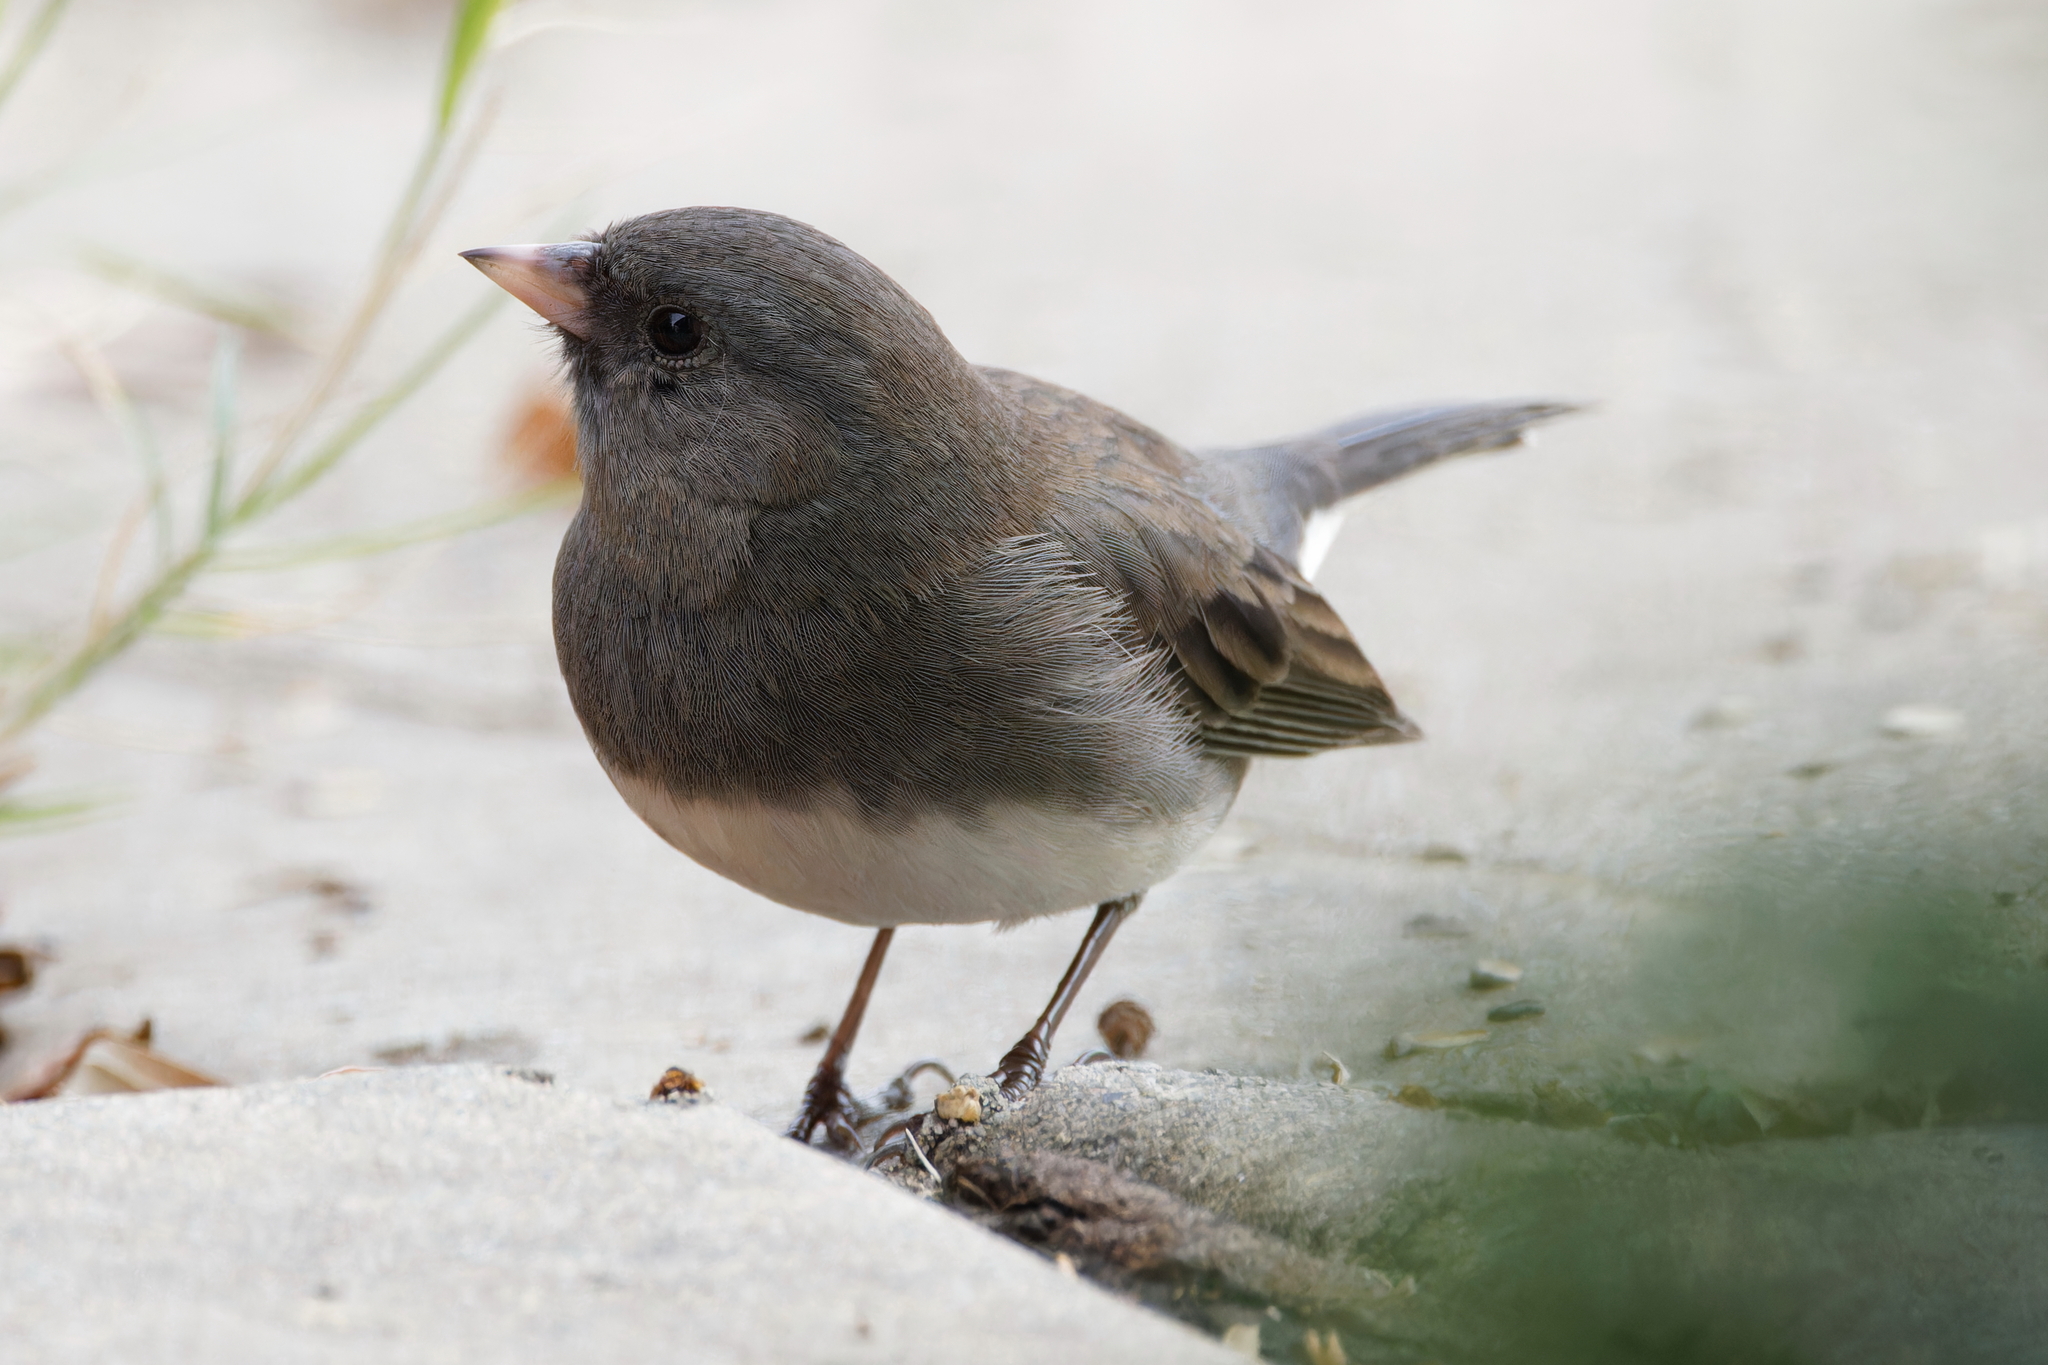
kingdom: Animalia
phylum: Chordata
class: Aves
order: Passeriformes
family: Passerellidae
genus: Junco
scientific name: Junco hyemalis
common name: Dark-eyed junco
